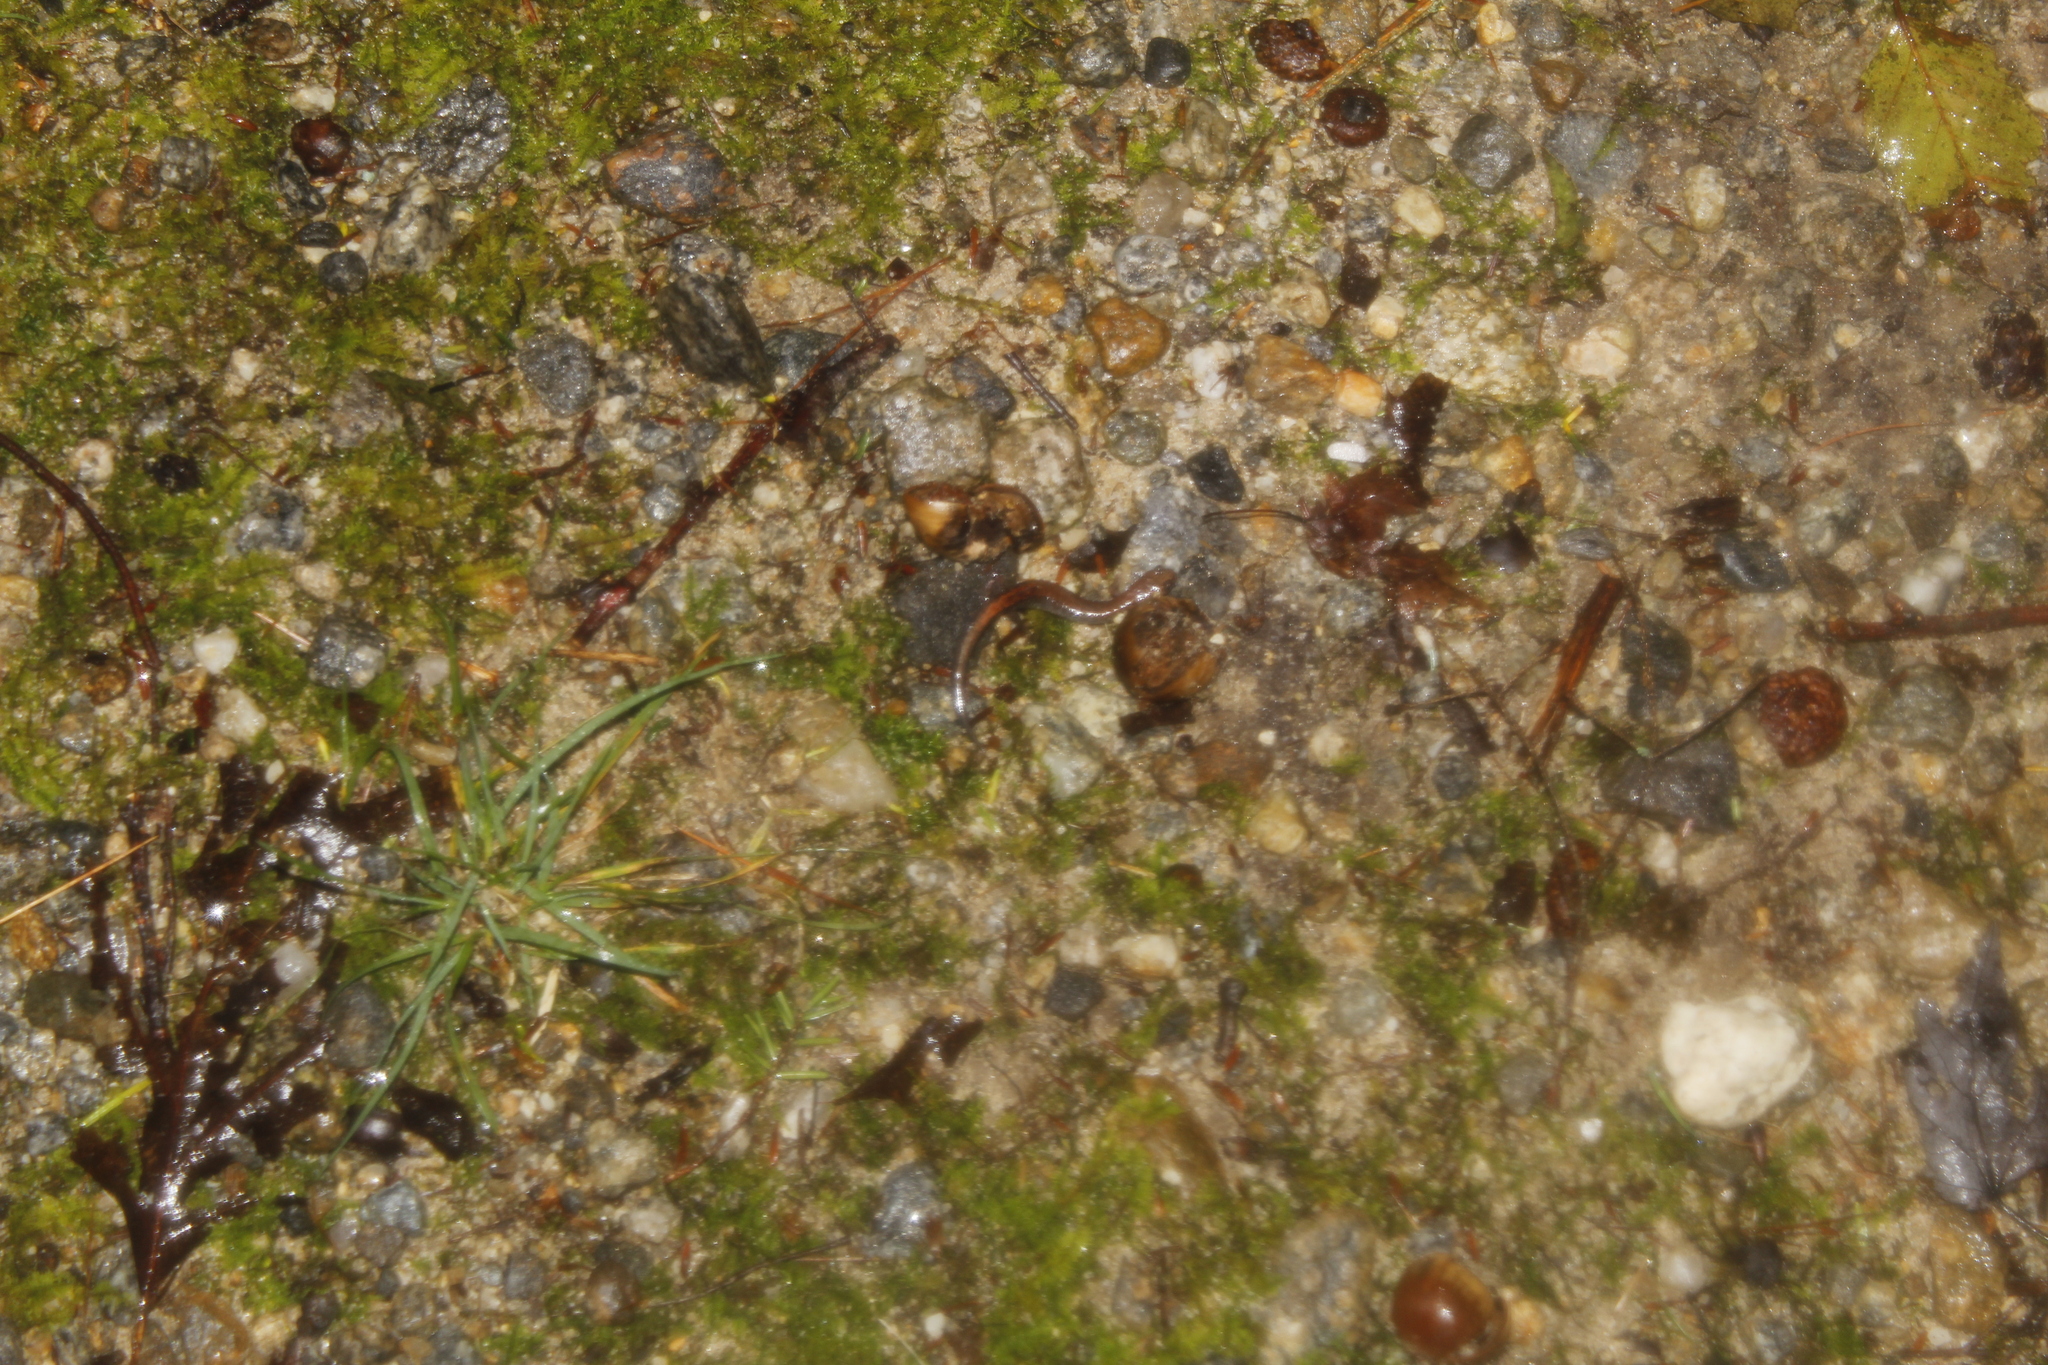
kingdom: Animalia
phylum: Chordata
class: Amphibia
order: Caudata
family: Plethodontidae
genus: Plethodon
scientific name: Plethodon cinereus
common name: Redback salamander
